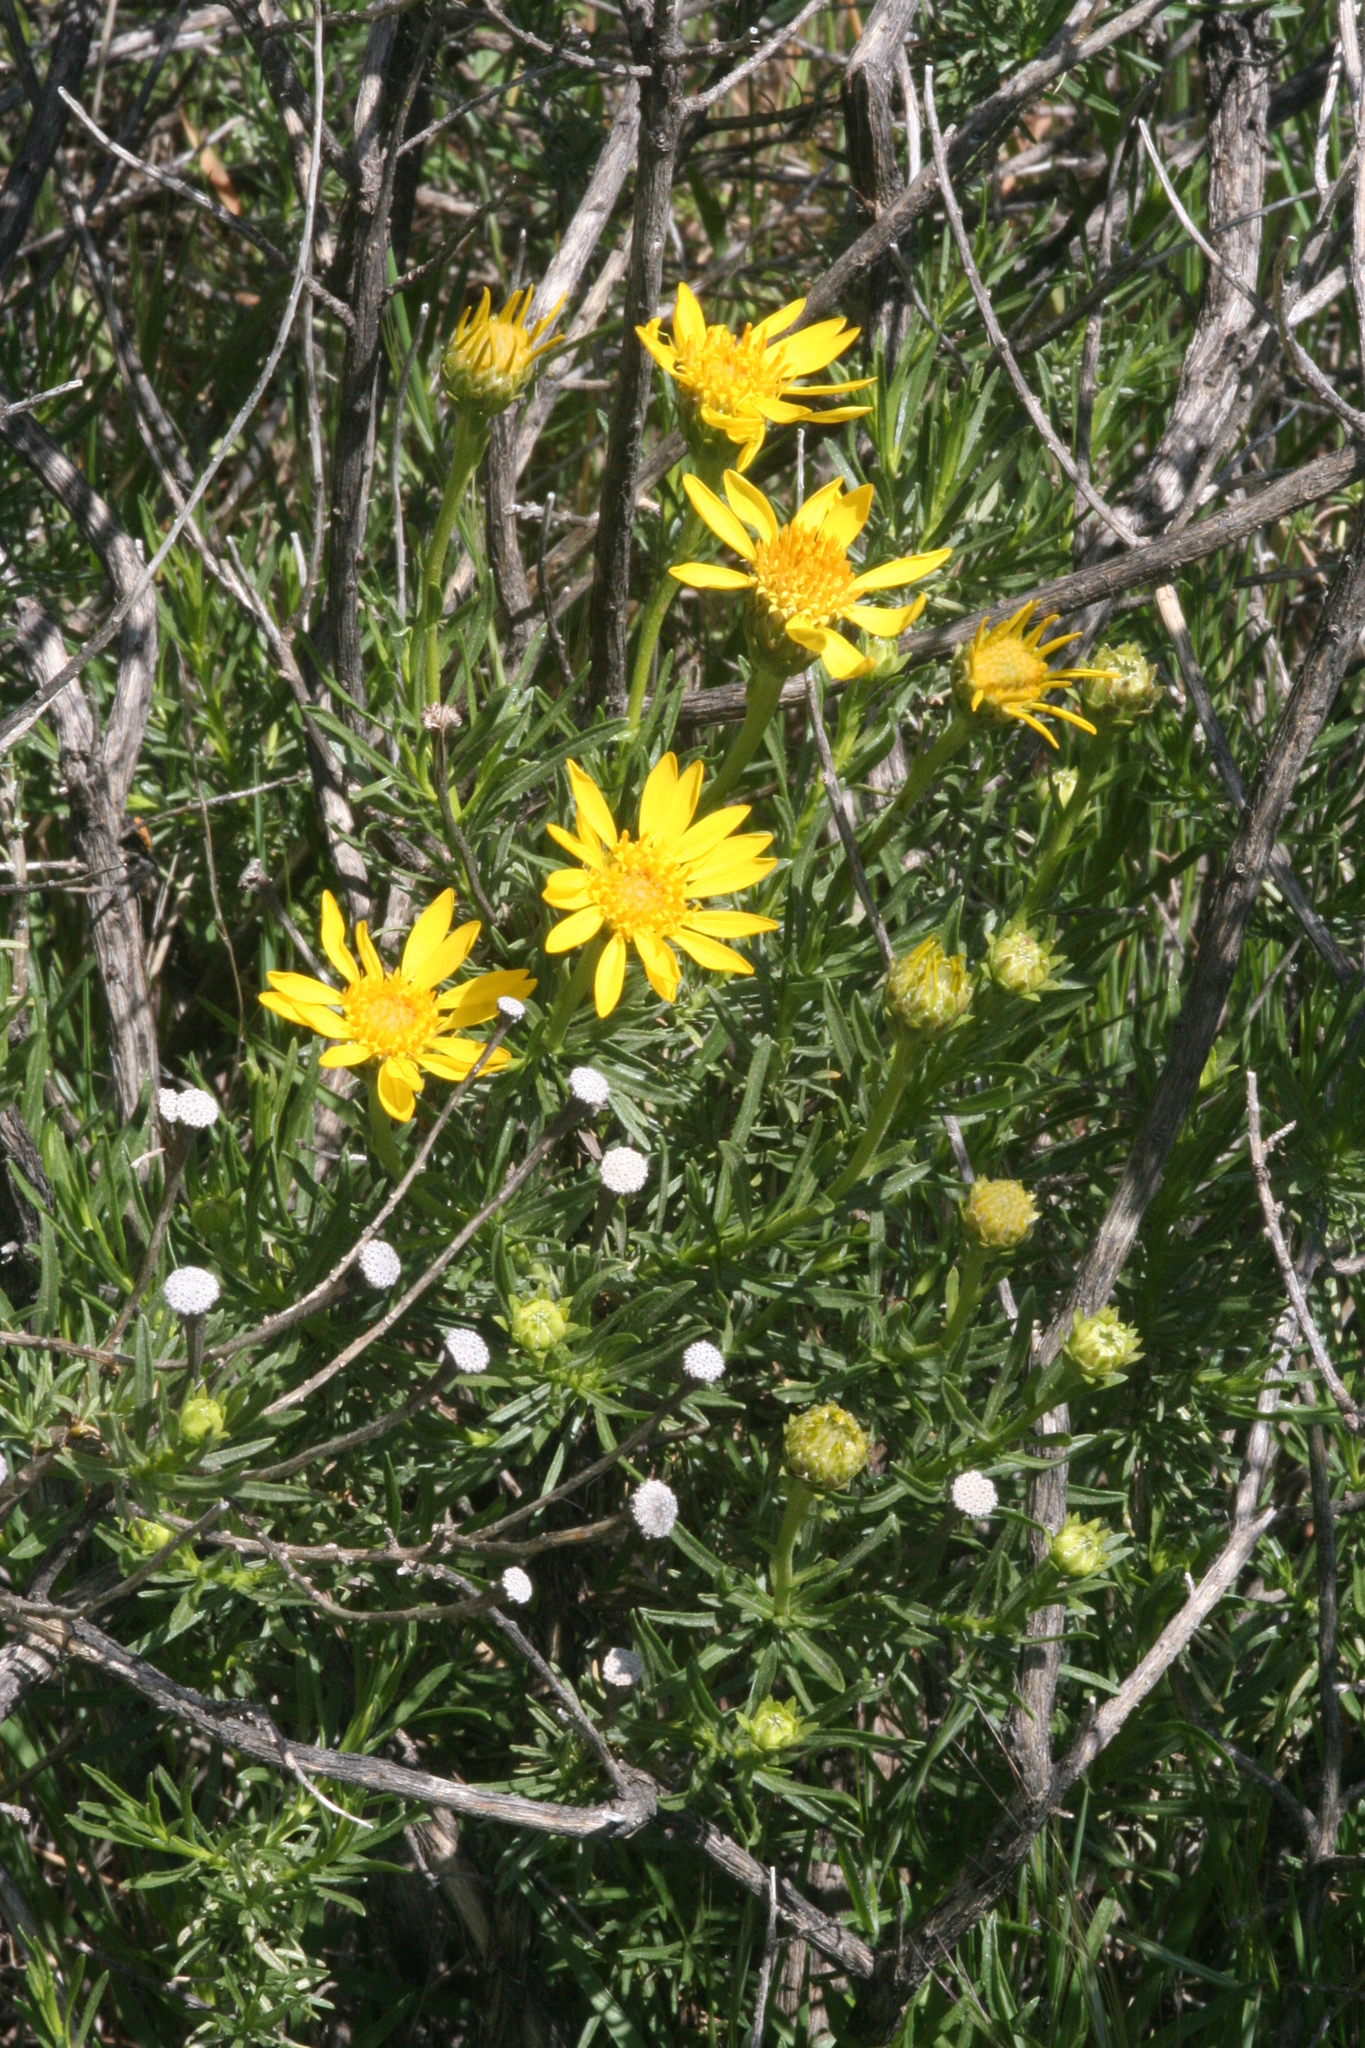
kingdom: Plantae
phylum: Tracheophyta
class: Magnoliopsida
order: Asterales
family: Asteraceae
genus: Ericameria
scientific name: Ericameria linearifolia
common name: Interior goldenbush
